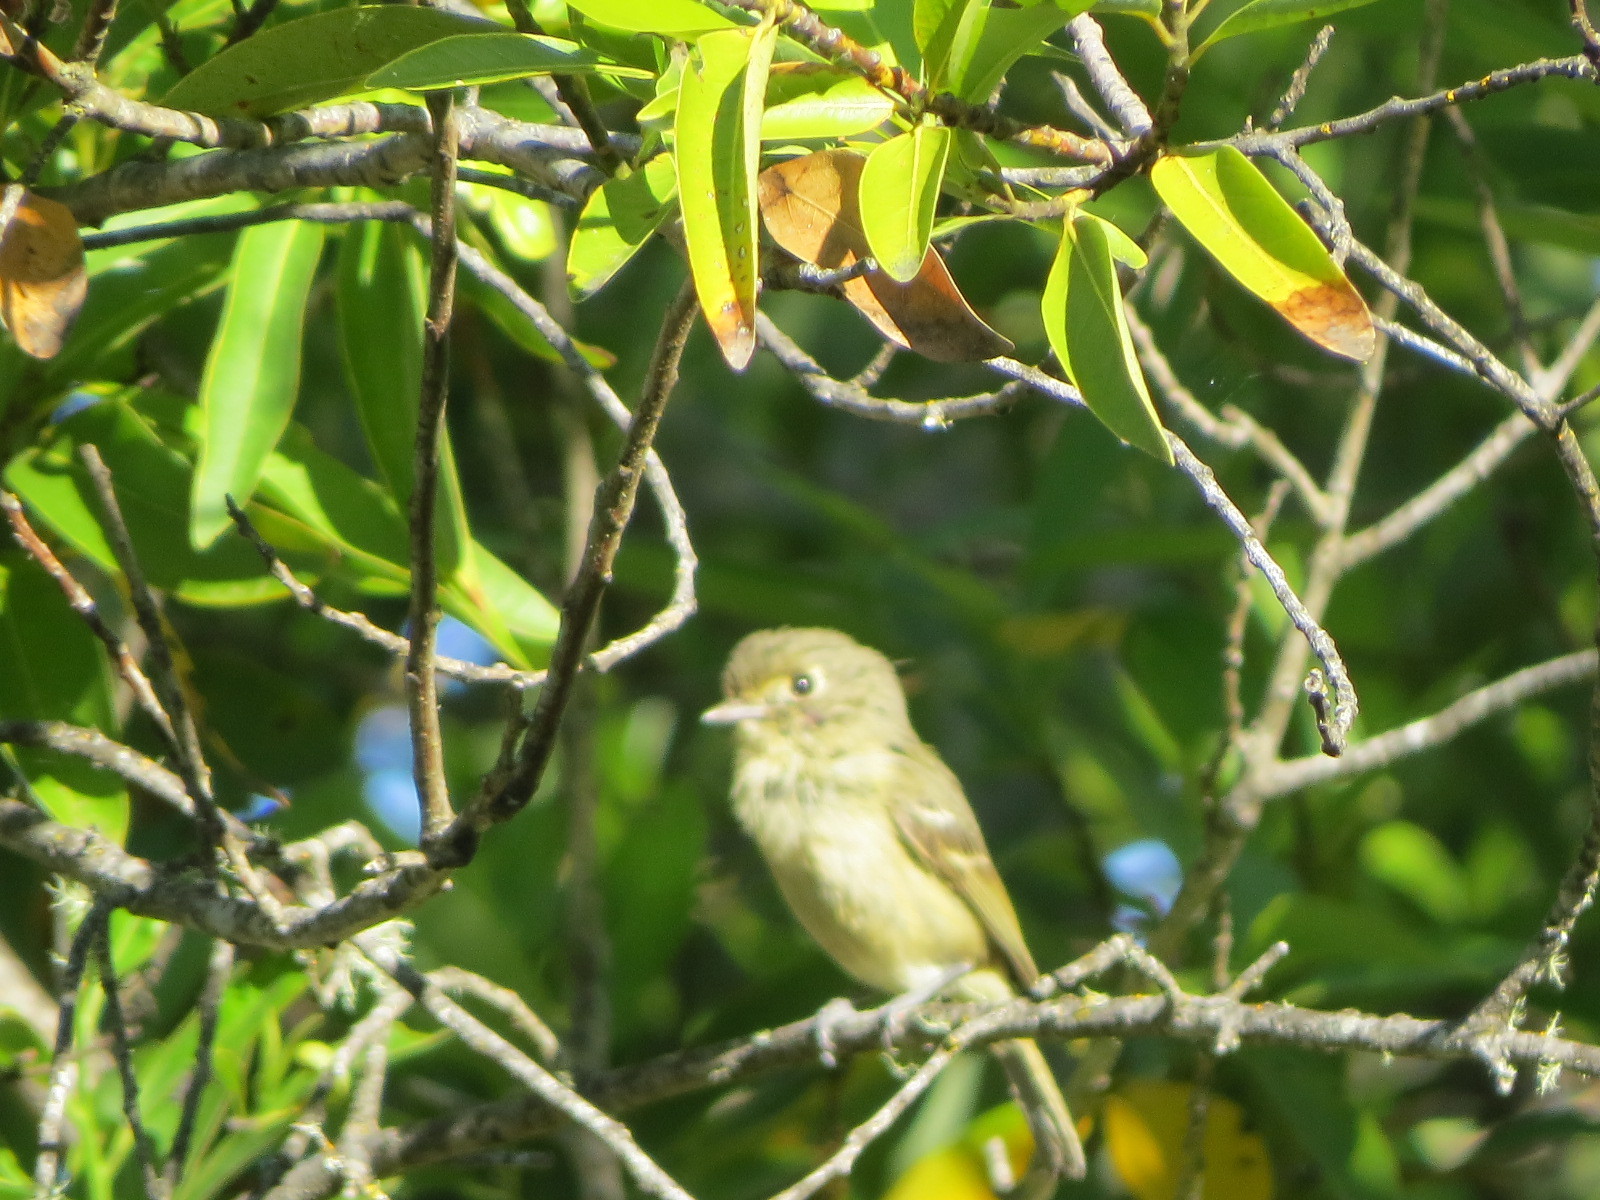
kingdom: Animalia
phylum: Chordata
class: Aves
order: Passeriformes
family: Vireonidae
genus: Vireo
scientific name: Vireo huttoni
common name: Hutton's vireo
